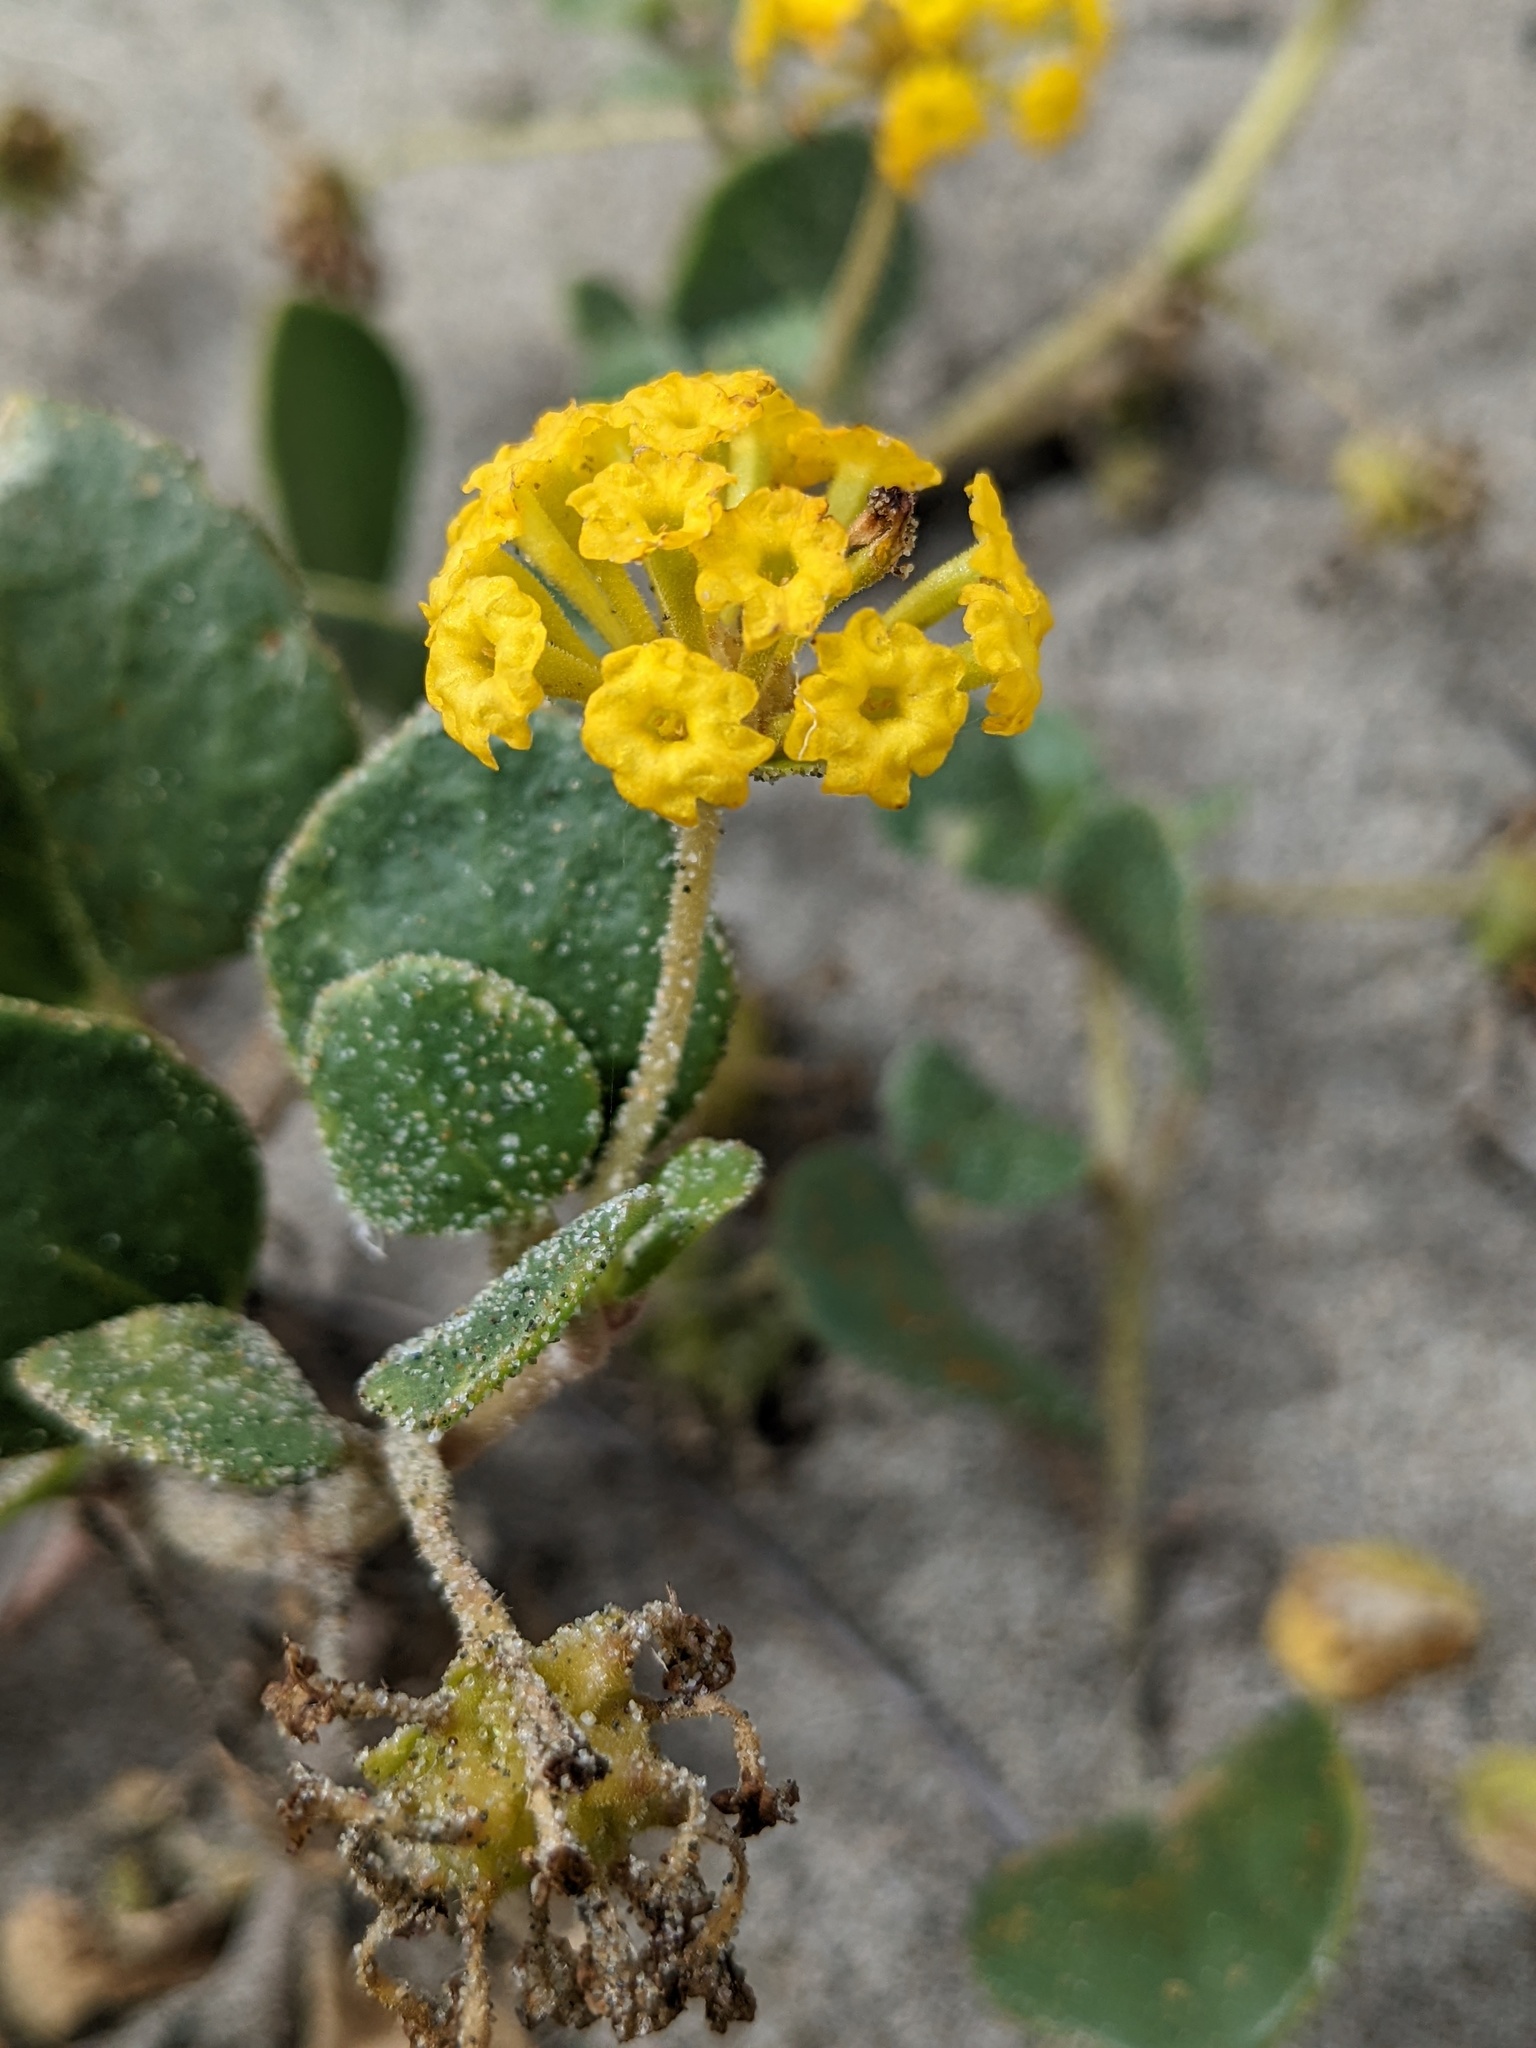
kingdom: Plantae
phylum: Tracheophyta
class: Magnoliopsida
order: Caryophyllales
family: Nyctaginaceae
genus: Abronia
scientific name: Abronia latifolia
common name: Yellow sand-verbena
